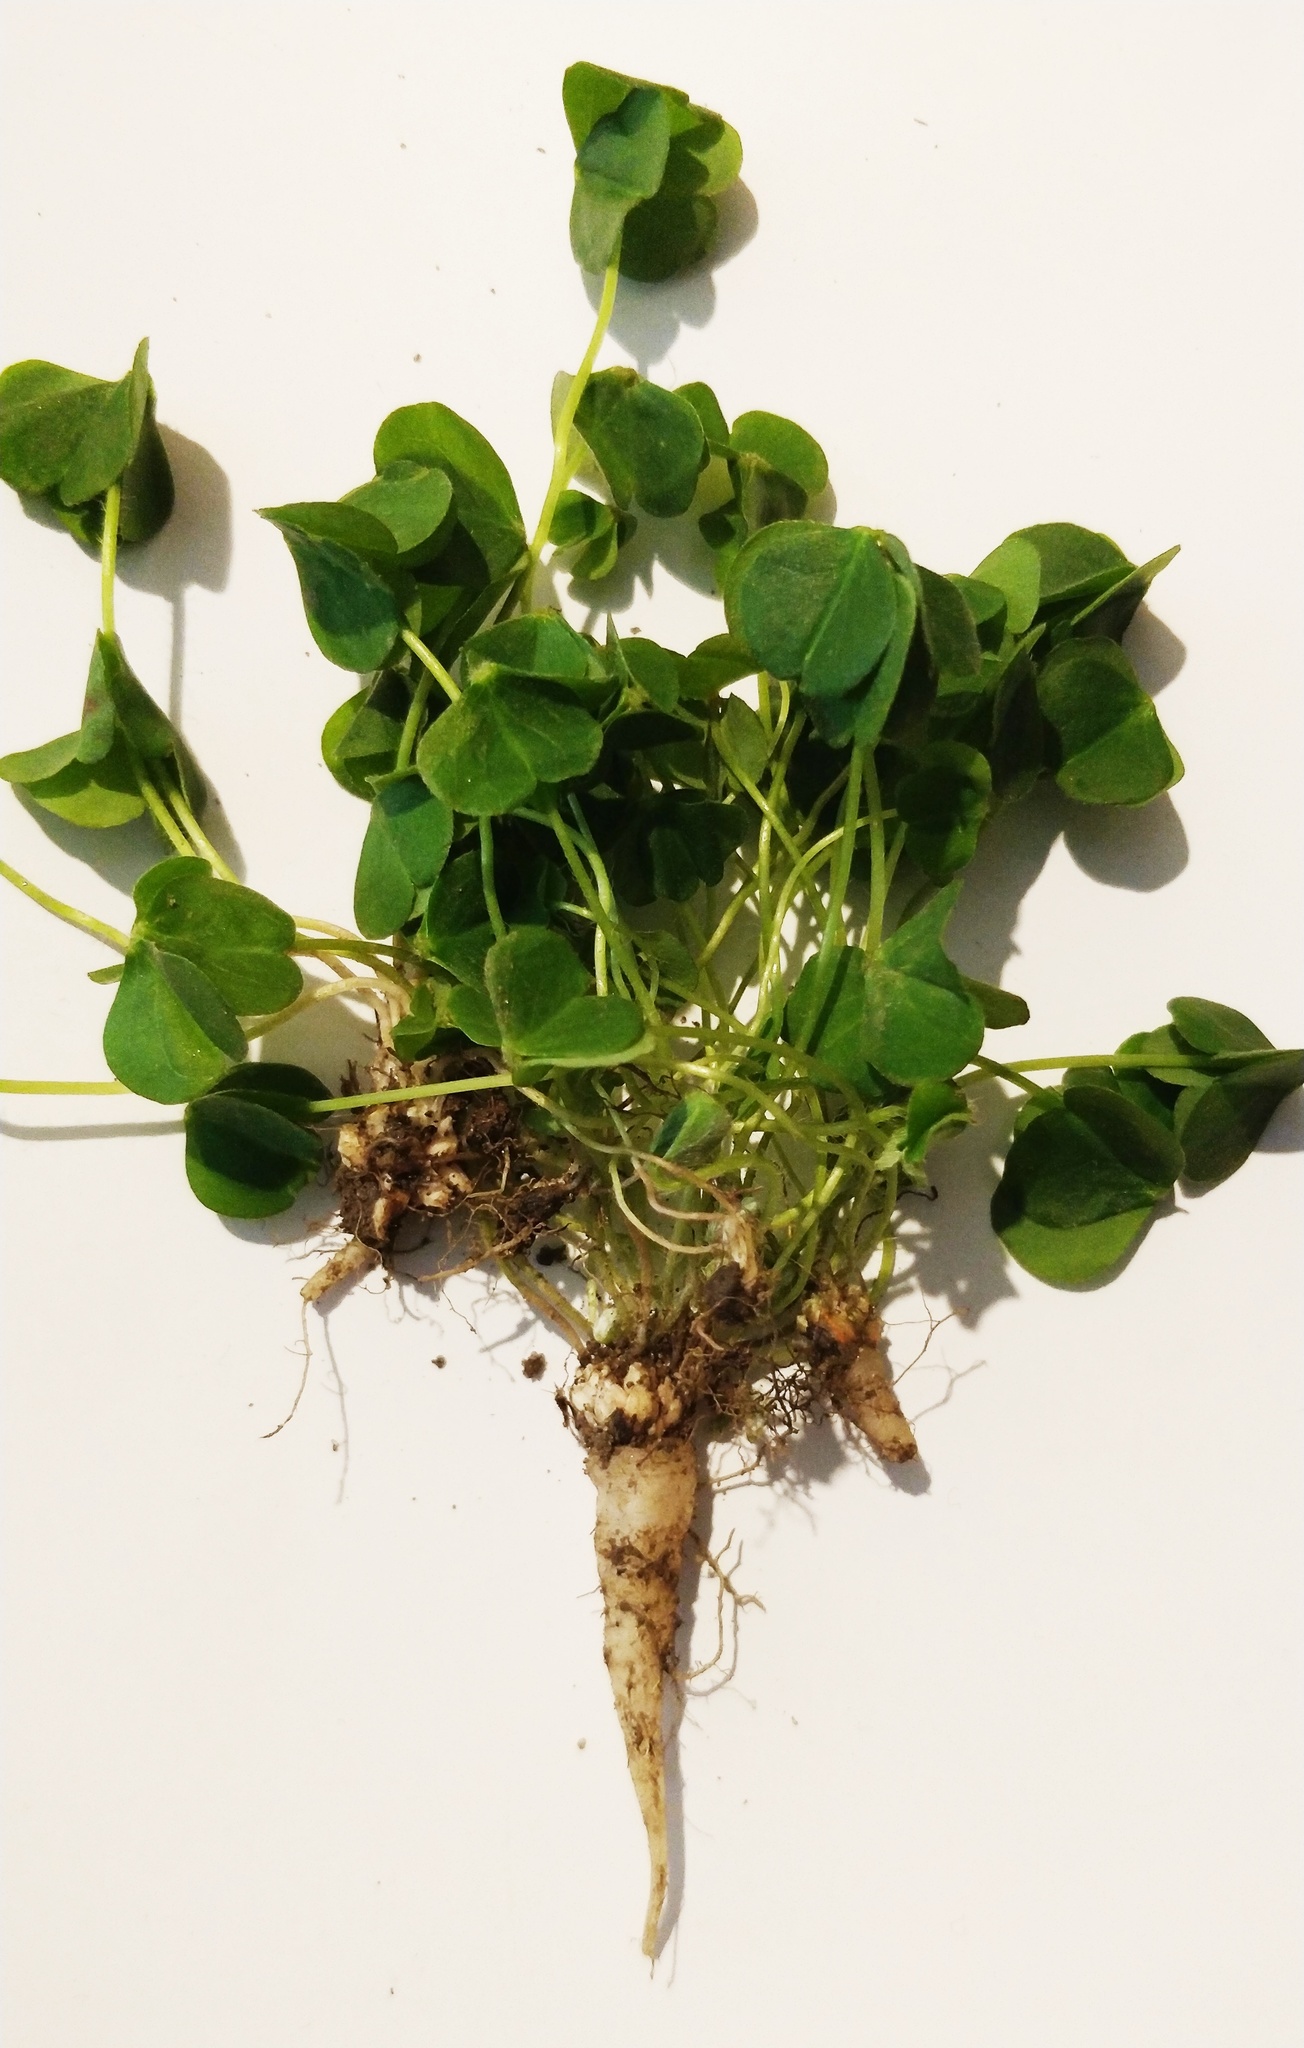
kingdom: Plantae
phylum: Tracheophyta
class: Magnoliopsida
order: Oxalidales
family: Oxalidaceae
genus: Oxalis
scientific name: Oxalis debilis
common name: Large-flowered pink-sorrel
